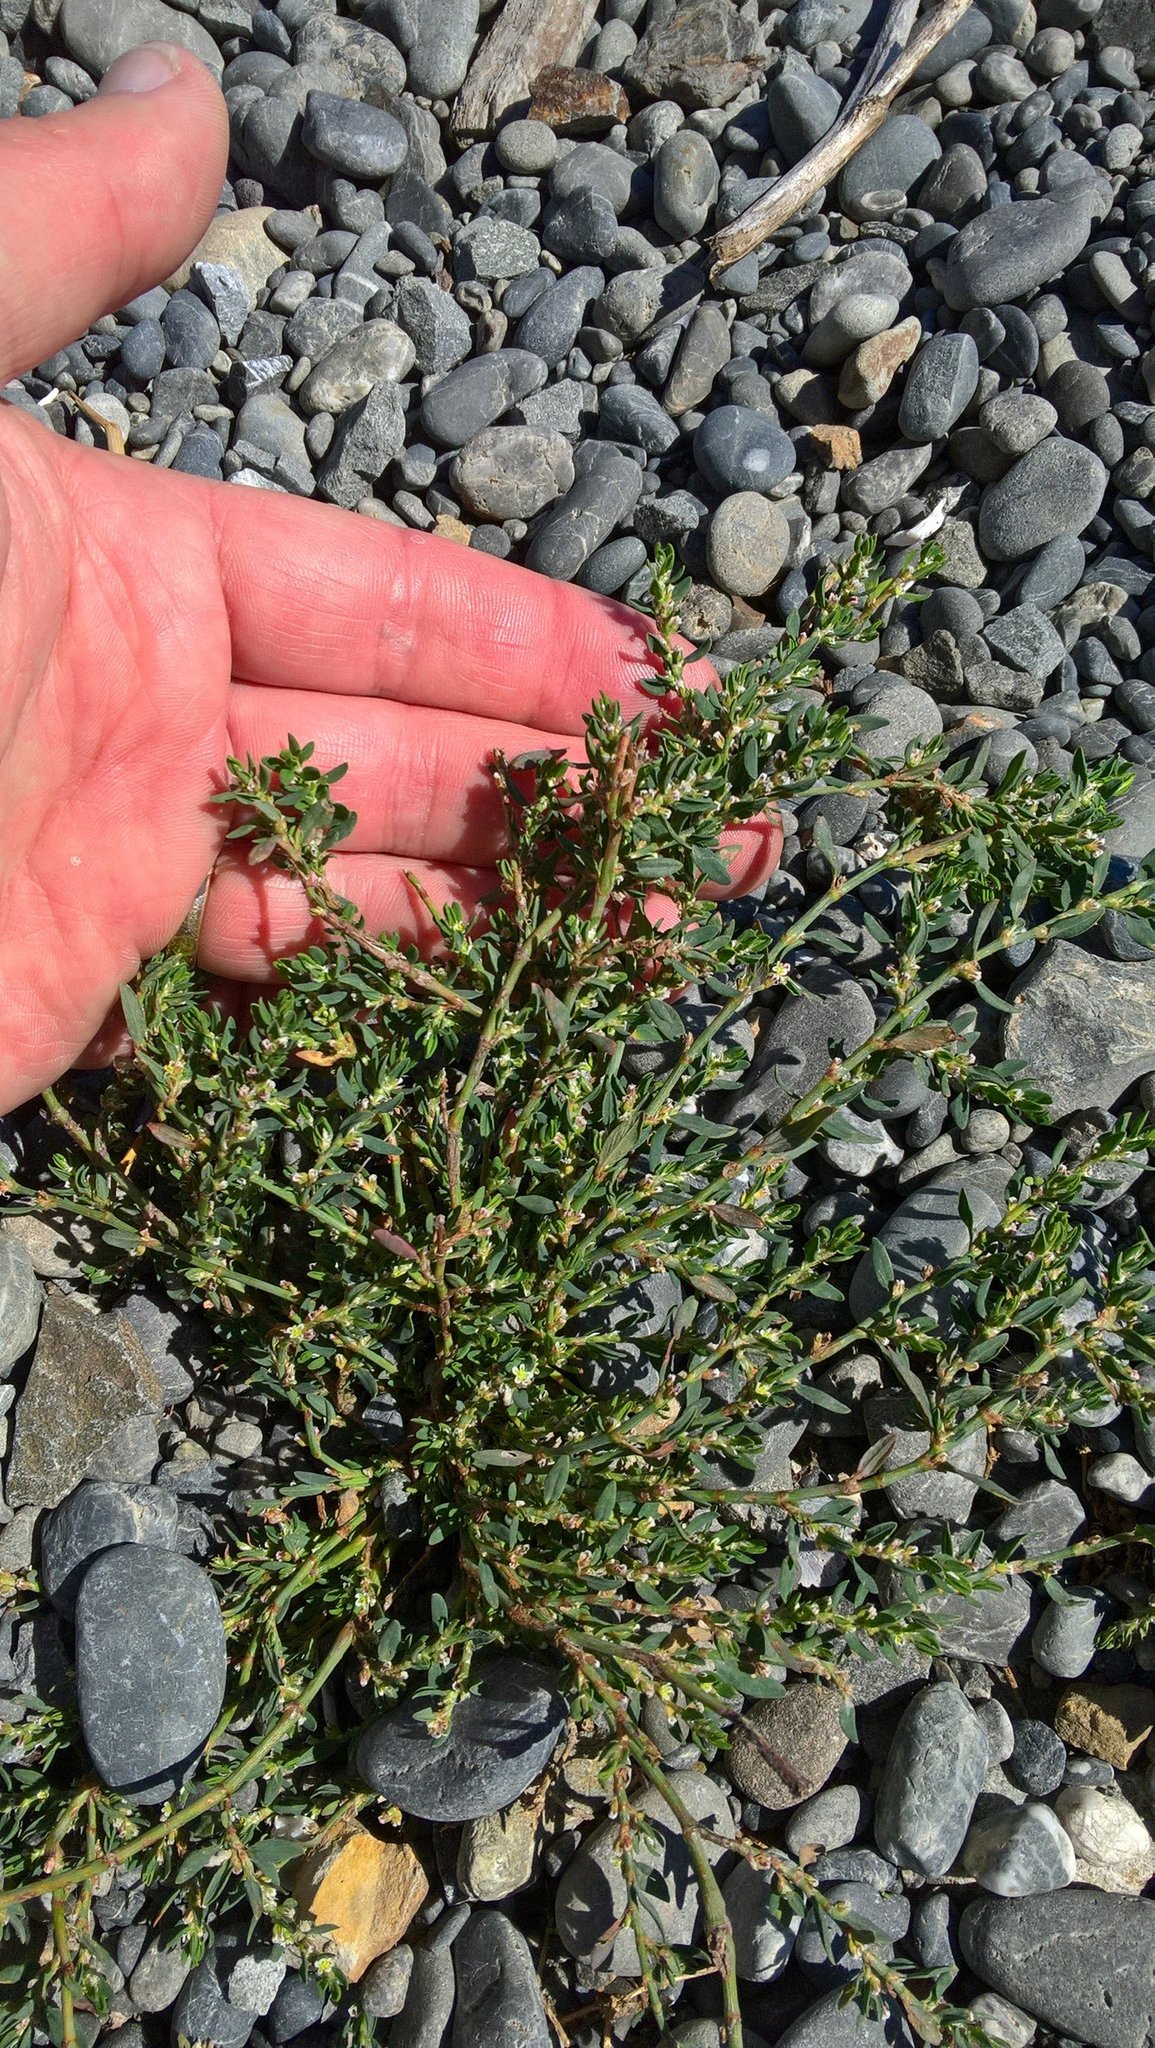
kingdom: Plantae
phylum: Tracheophyta
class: Magnoliopsida
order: Caryophyllales
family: Polygonaceae
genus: Polygonum
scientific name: Polygonum aviculare
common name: Prostrate knotweed
